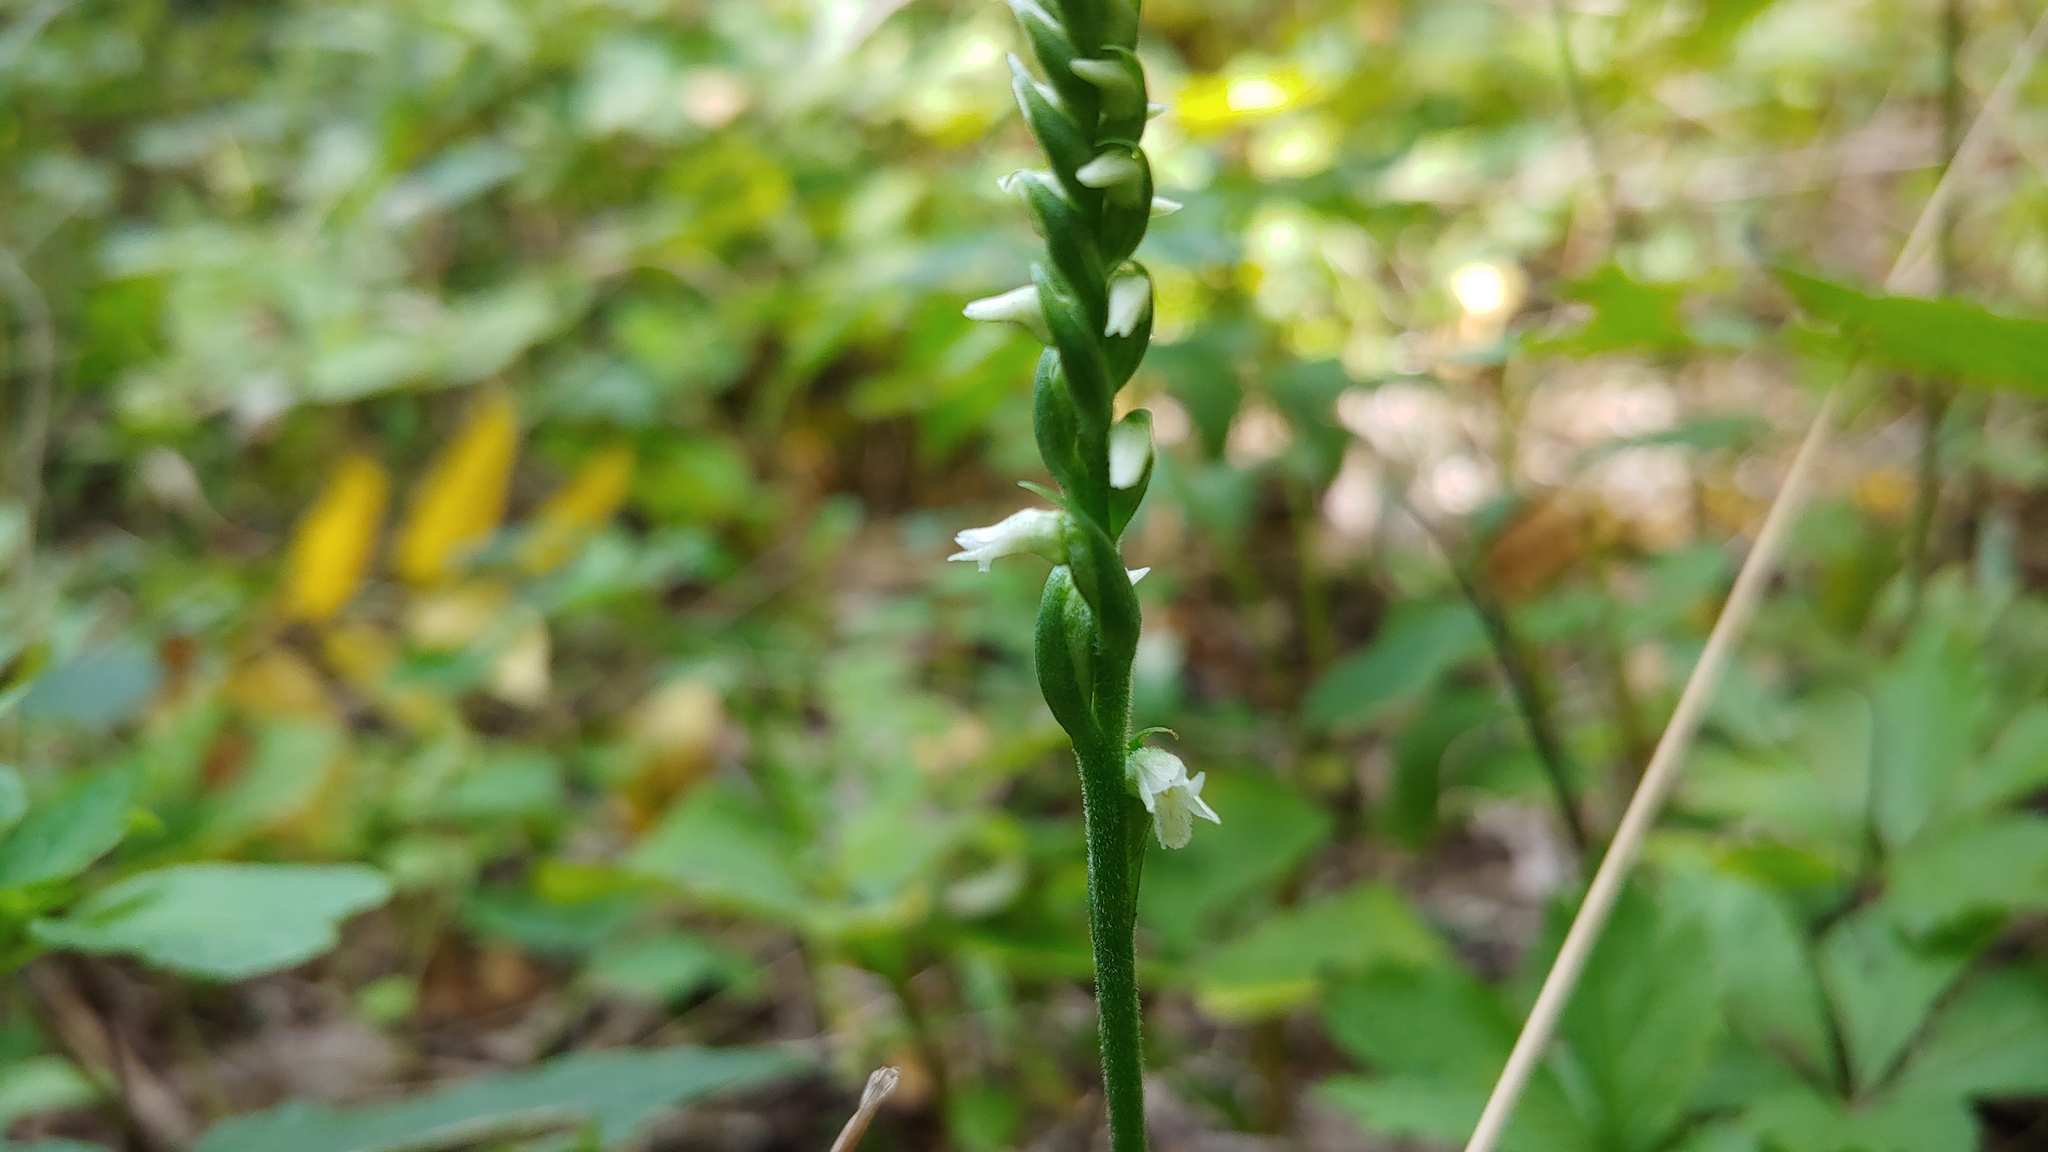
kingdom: Plantae
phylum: Tracheophyta
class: Liliopsida
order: Asparagales
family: Orchidaceae
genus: Spiranthes
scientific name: Spiranthes ovalis
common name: October ladies'-tresses
